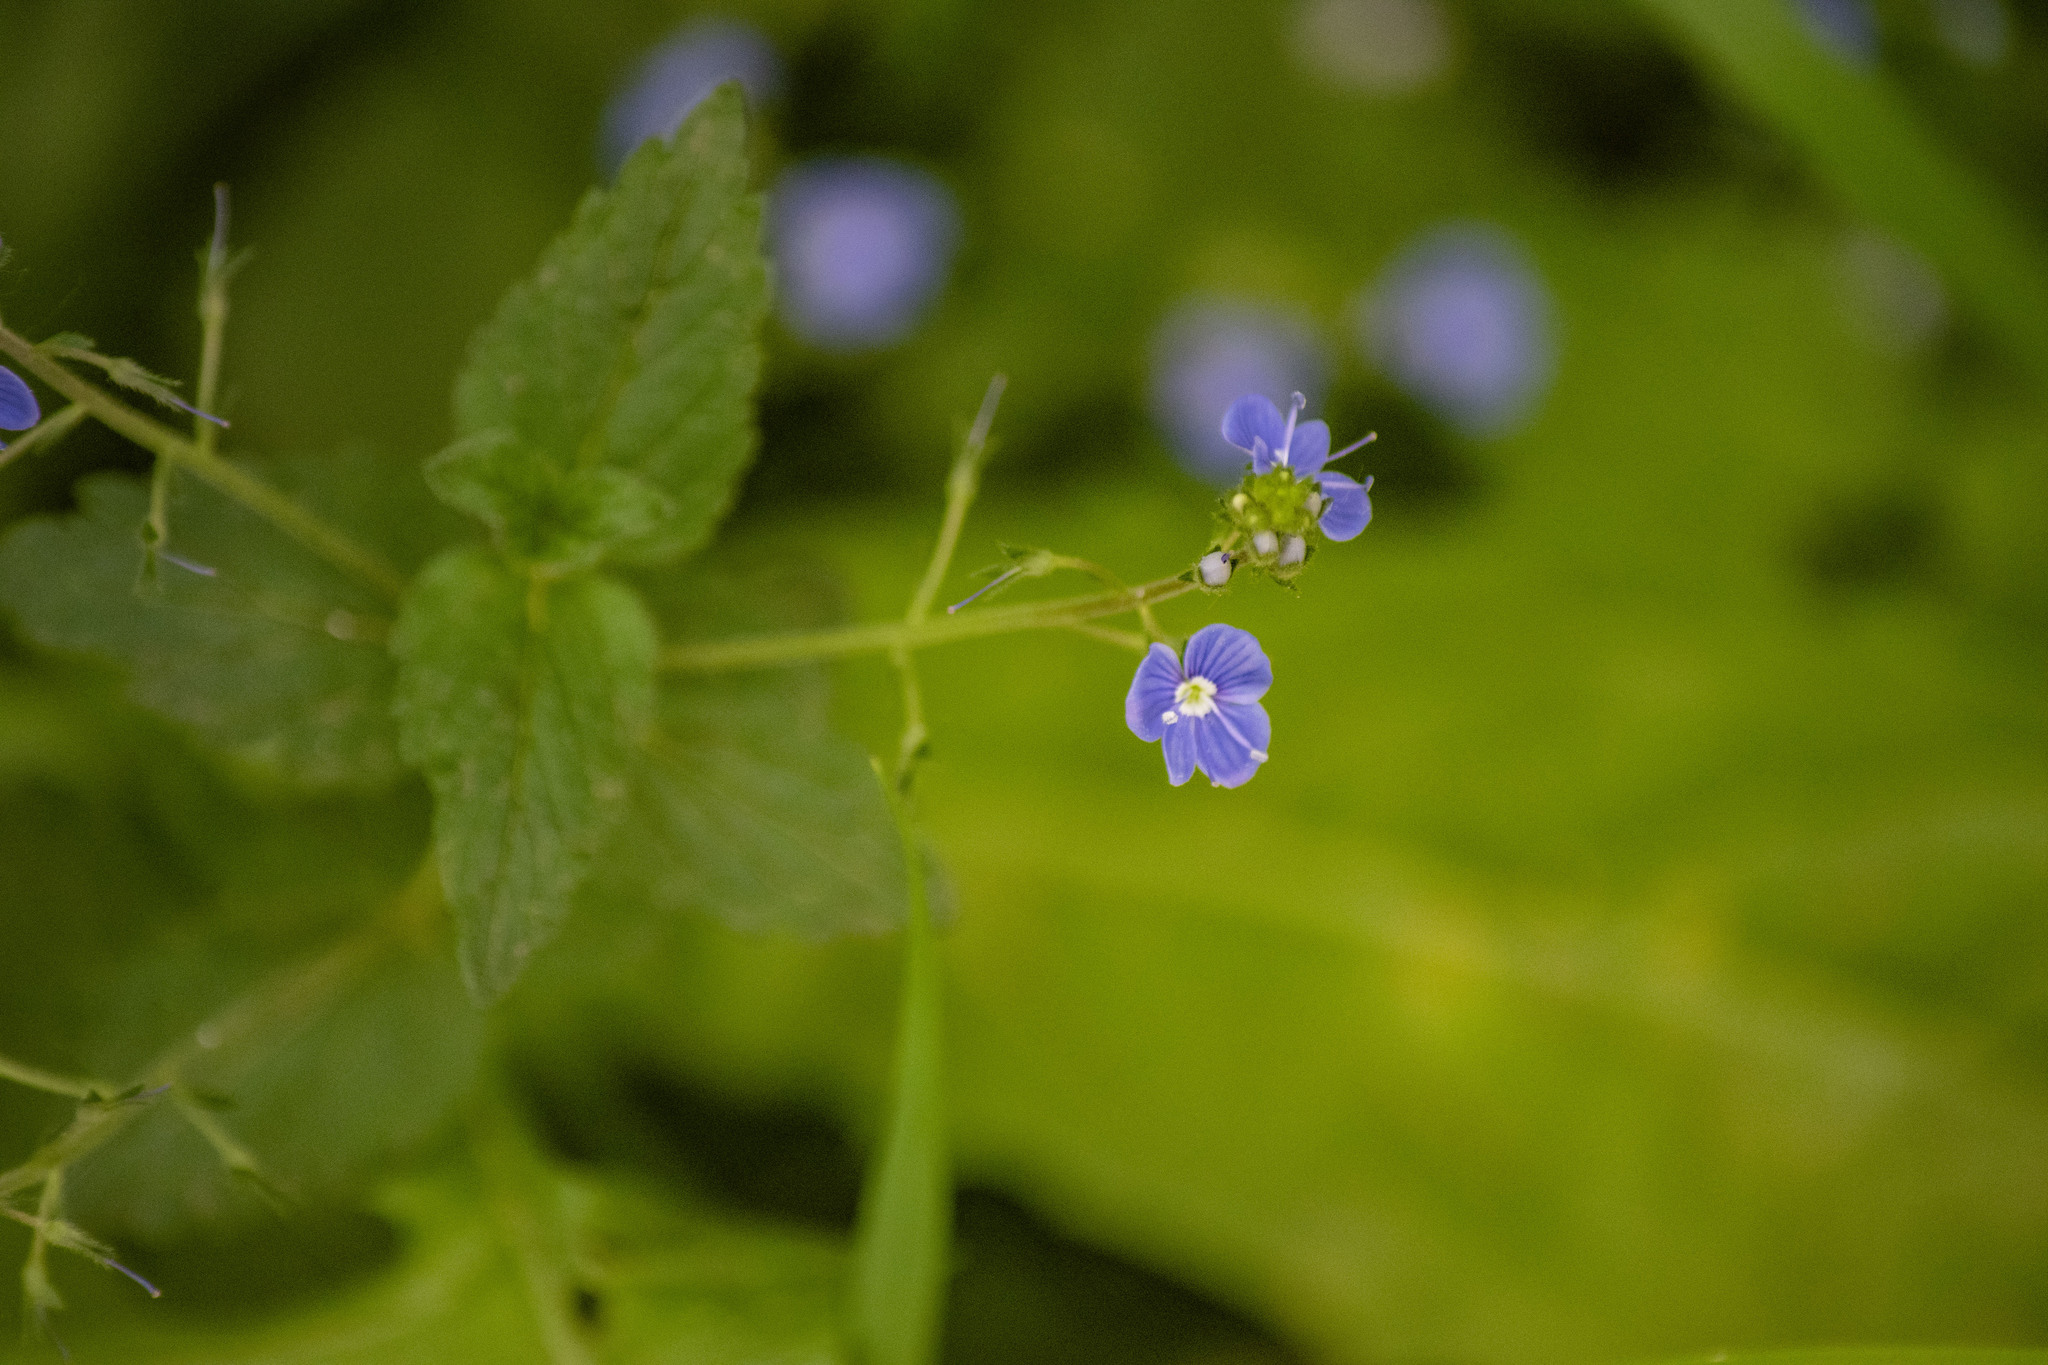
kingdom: Plantae
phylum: Tracheophyta
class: Magnoliopsida
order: Lamiales
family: Plantaginaceae
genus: Veronica
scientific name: Veronica chamaedrys
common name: Germander speedwell
